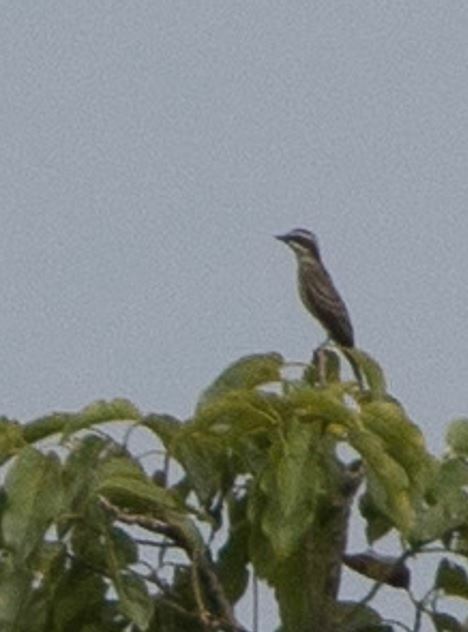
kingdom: Animalia
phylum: Chordata
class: Aves
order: Passeriformes
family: Tyrannidae
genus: Legatus
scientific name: Legatus leucophaius
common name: Piratic flycatcher
